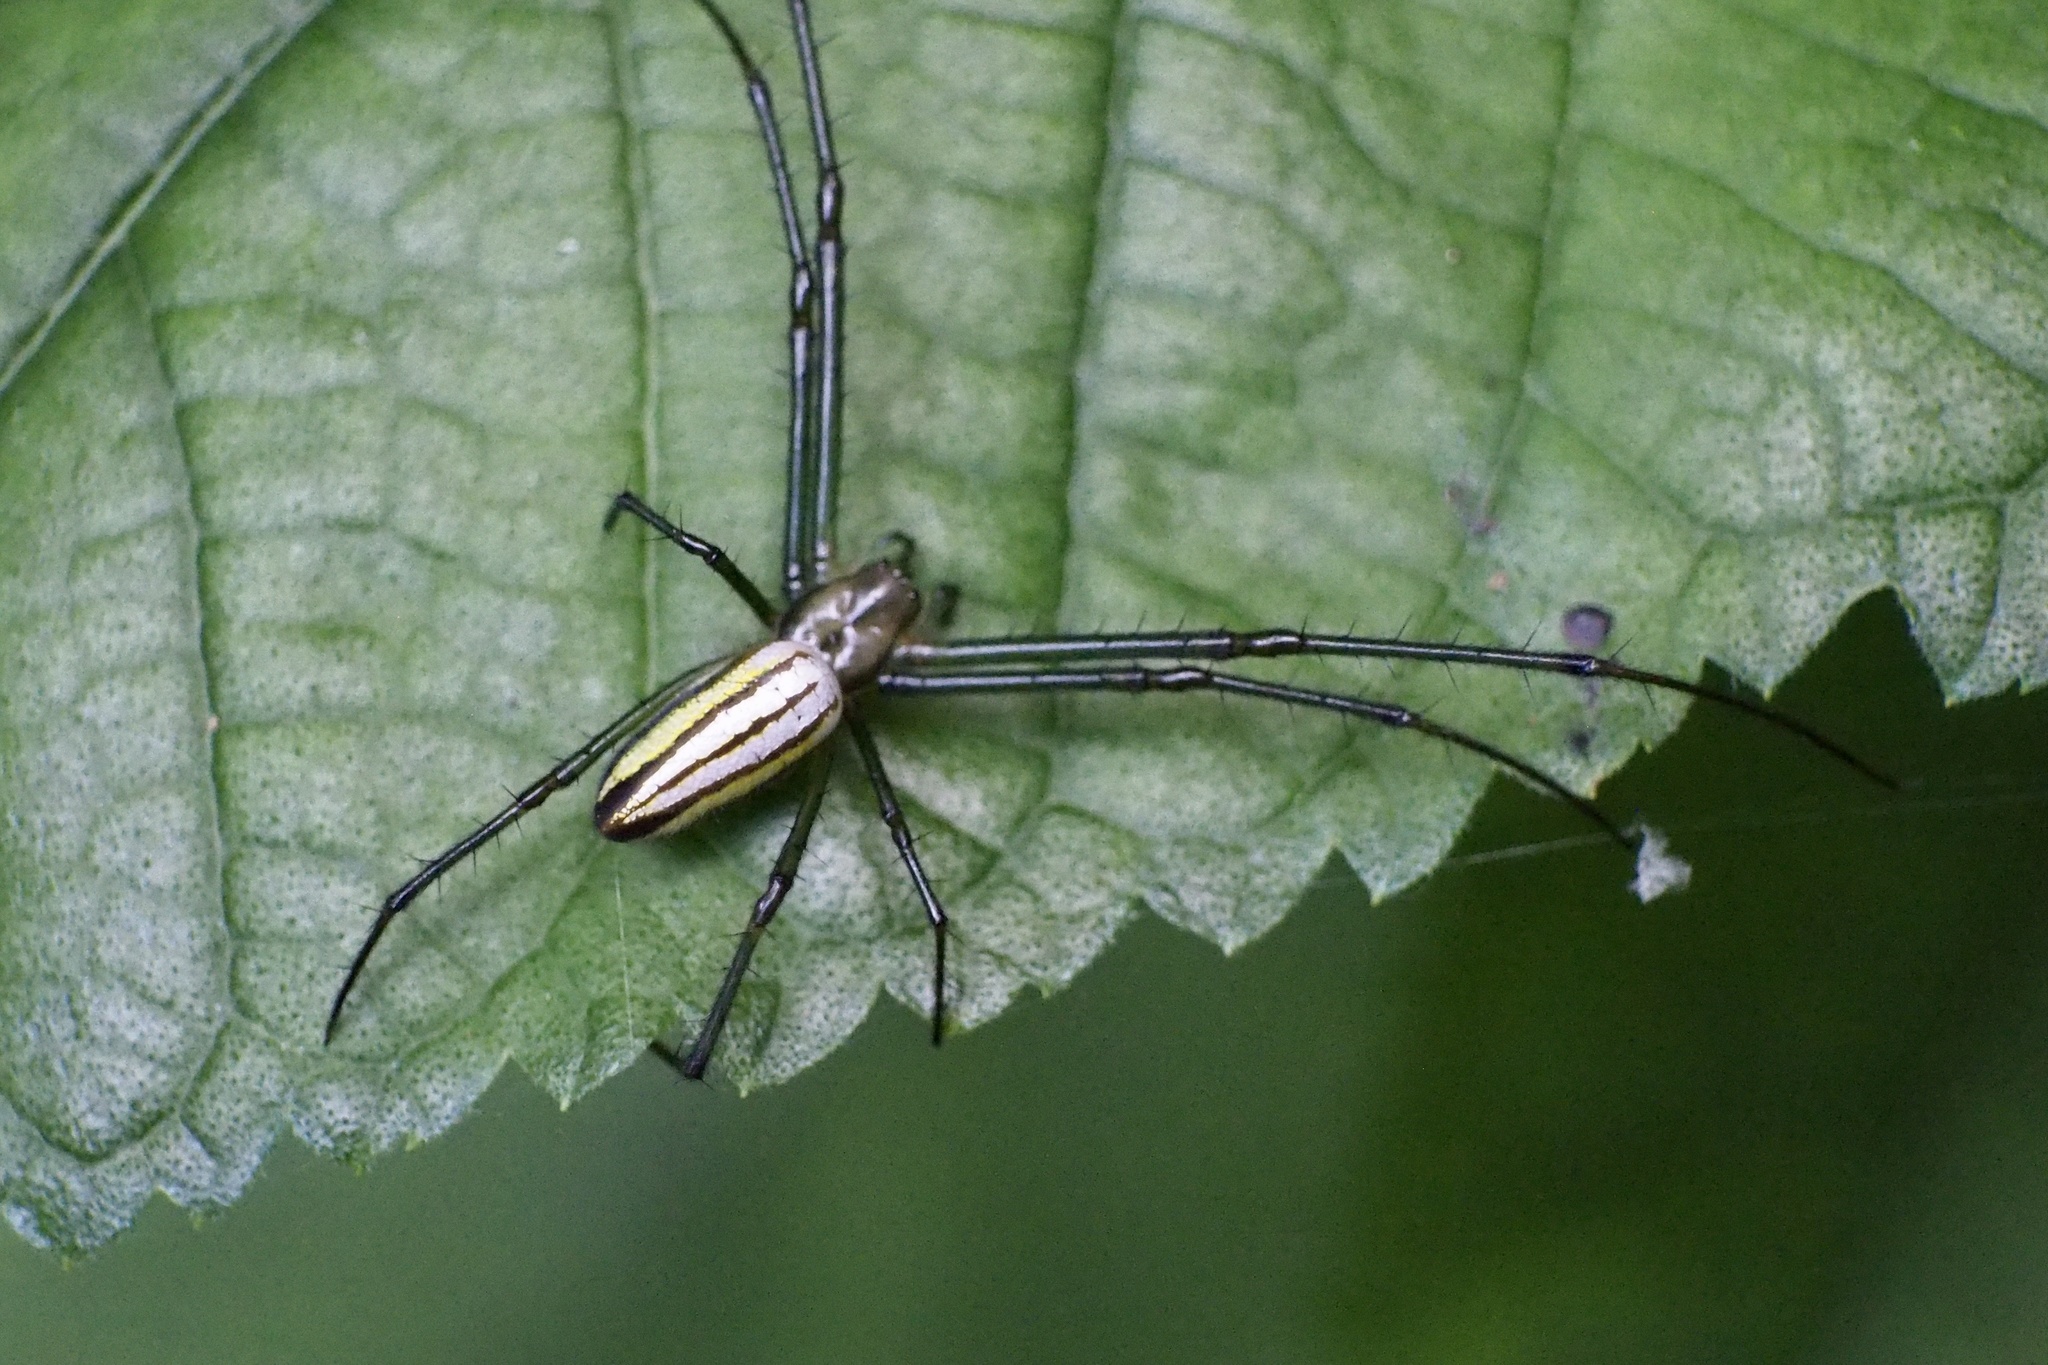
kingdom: Animalia
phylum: Arthropoda
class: Arachnida
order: Araneae
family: Tetragnathidae
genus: Leucauge
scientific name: Leucauge celebesiana
